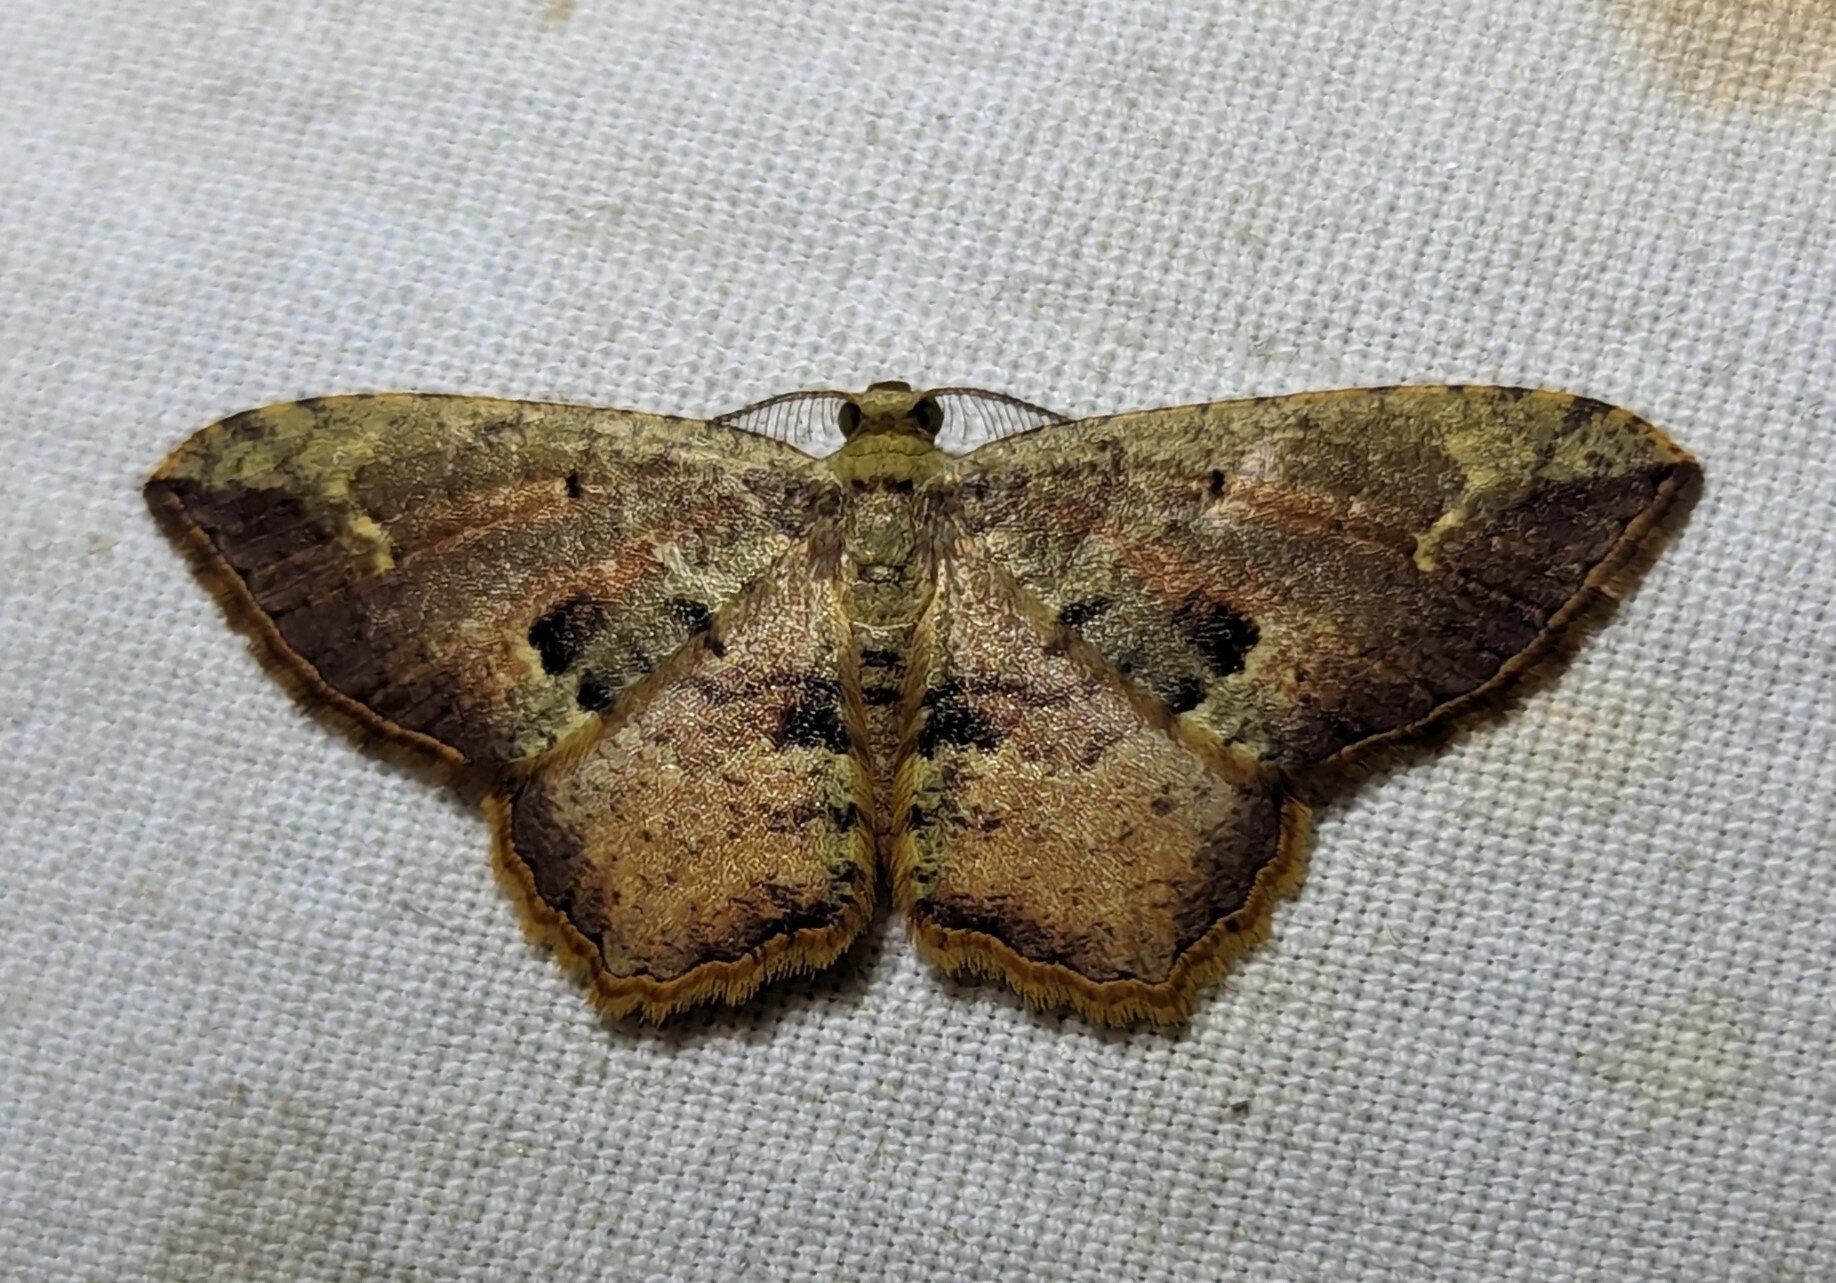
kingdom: Animalia
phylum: Arthropoda
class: Insecta
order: Lepidoptera
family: Geometridae
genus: Eois
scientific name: Eois pallidicosta
